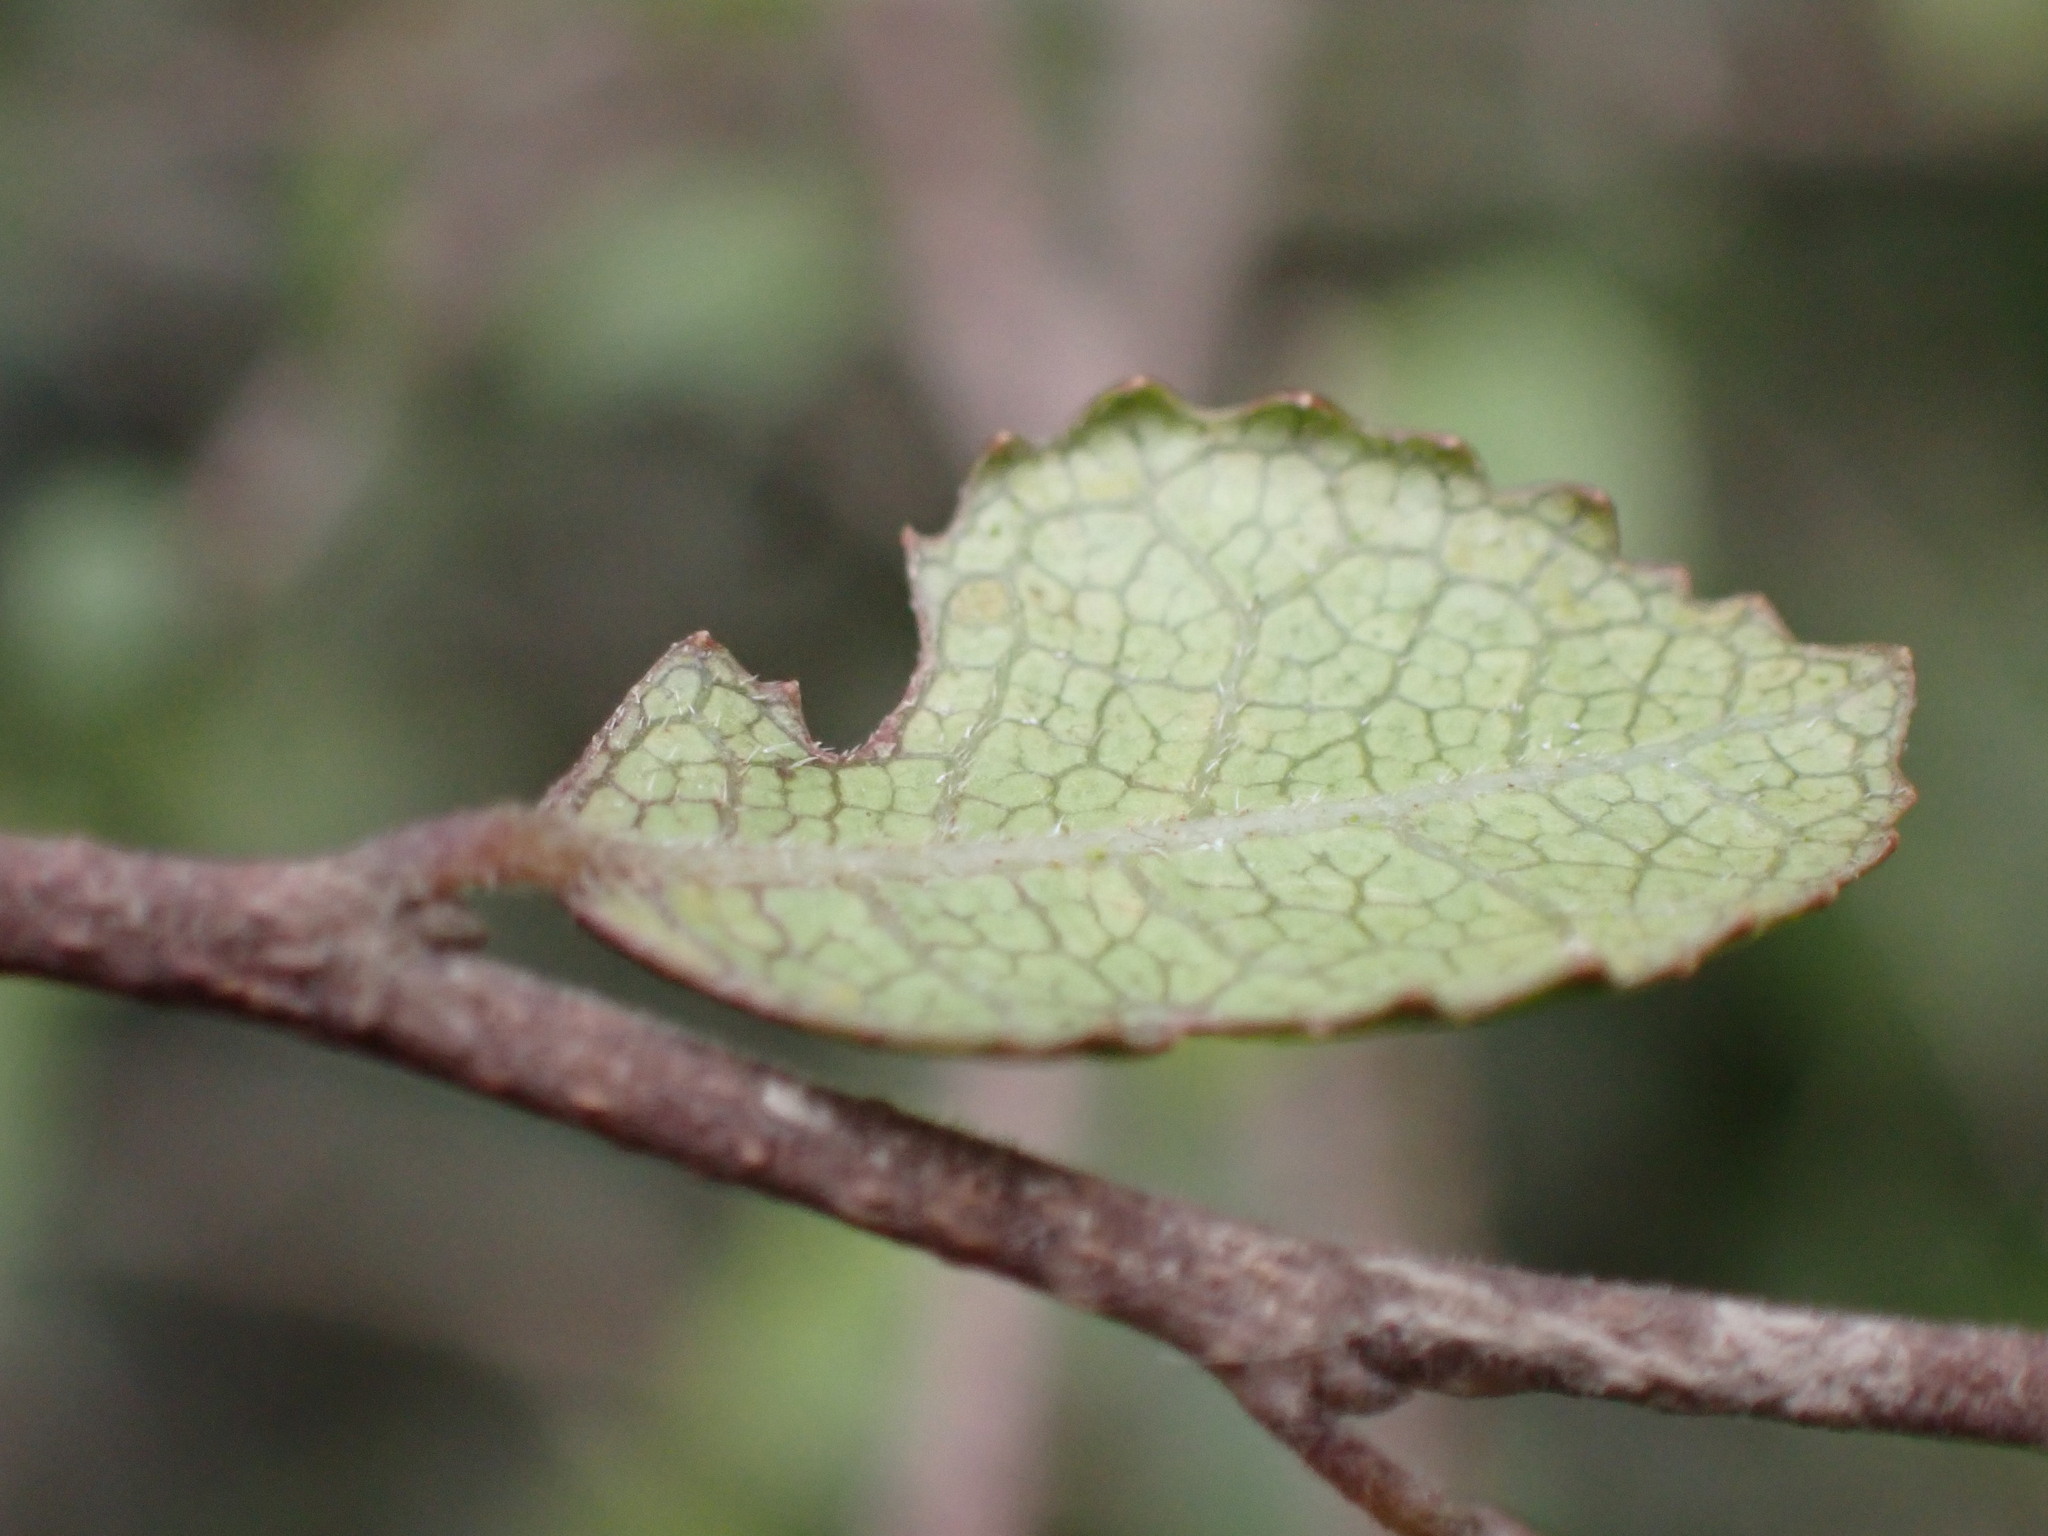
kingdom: Plantae
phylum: Tracheophyta
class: Magnoliopsida
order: Rosales
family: Moraceae
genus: Paratrophis
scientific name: Paratrophis microphylla
